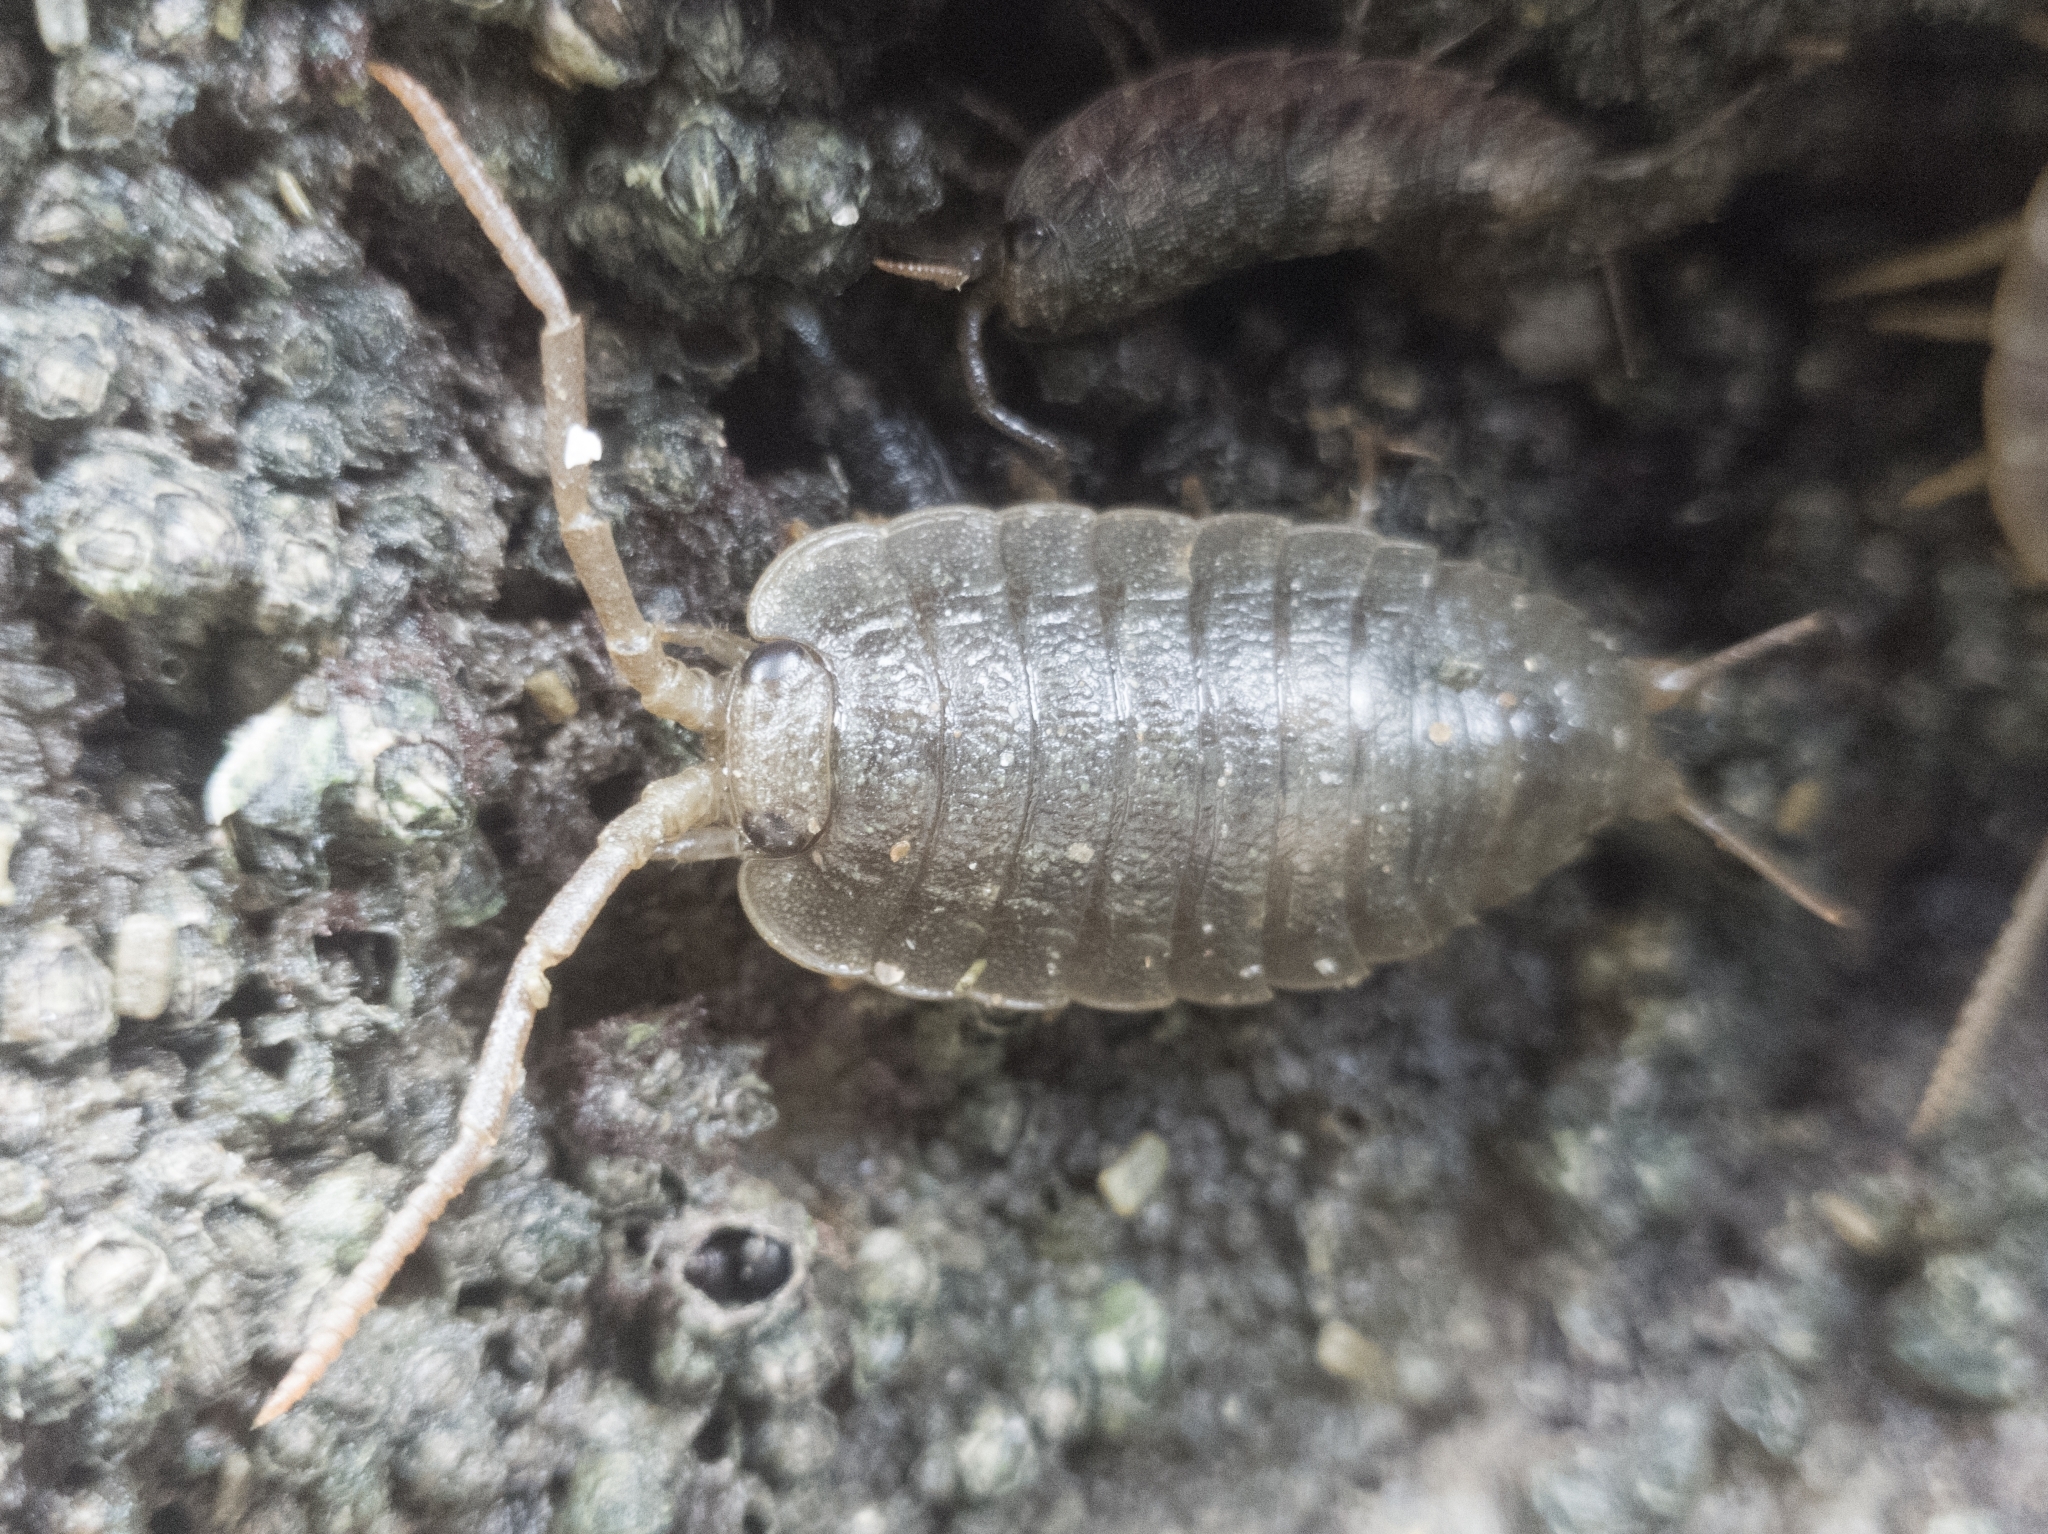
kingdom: Animalia
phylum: Arthropoda
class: Malacostraca
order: Isopoda
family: Ligiidae
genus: Ligia
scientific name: Ligia oceanica
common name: Sea slater
